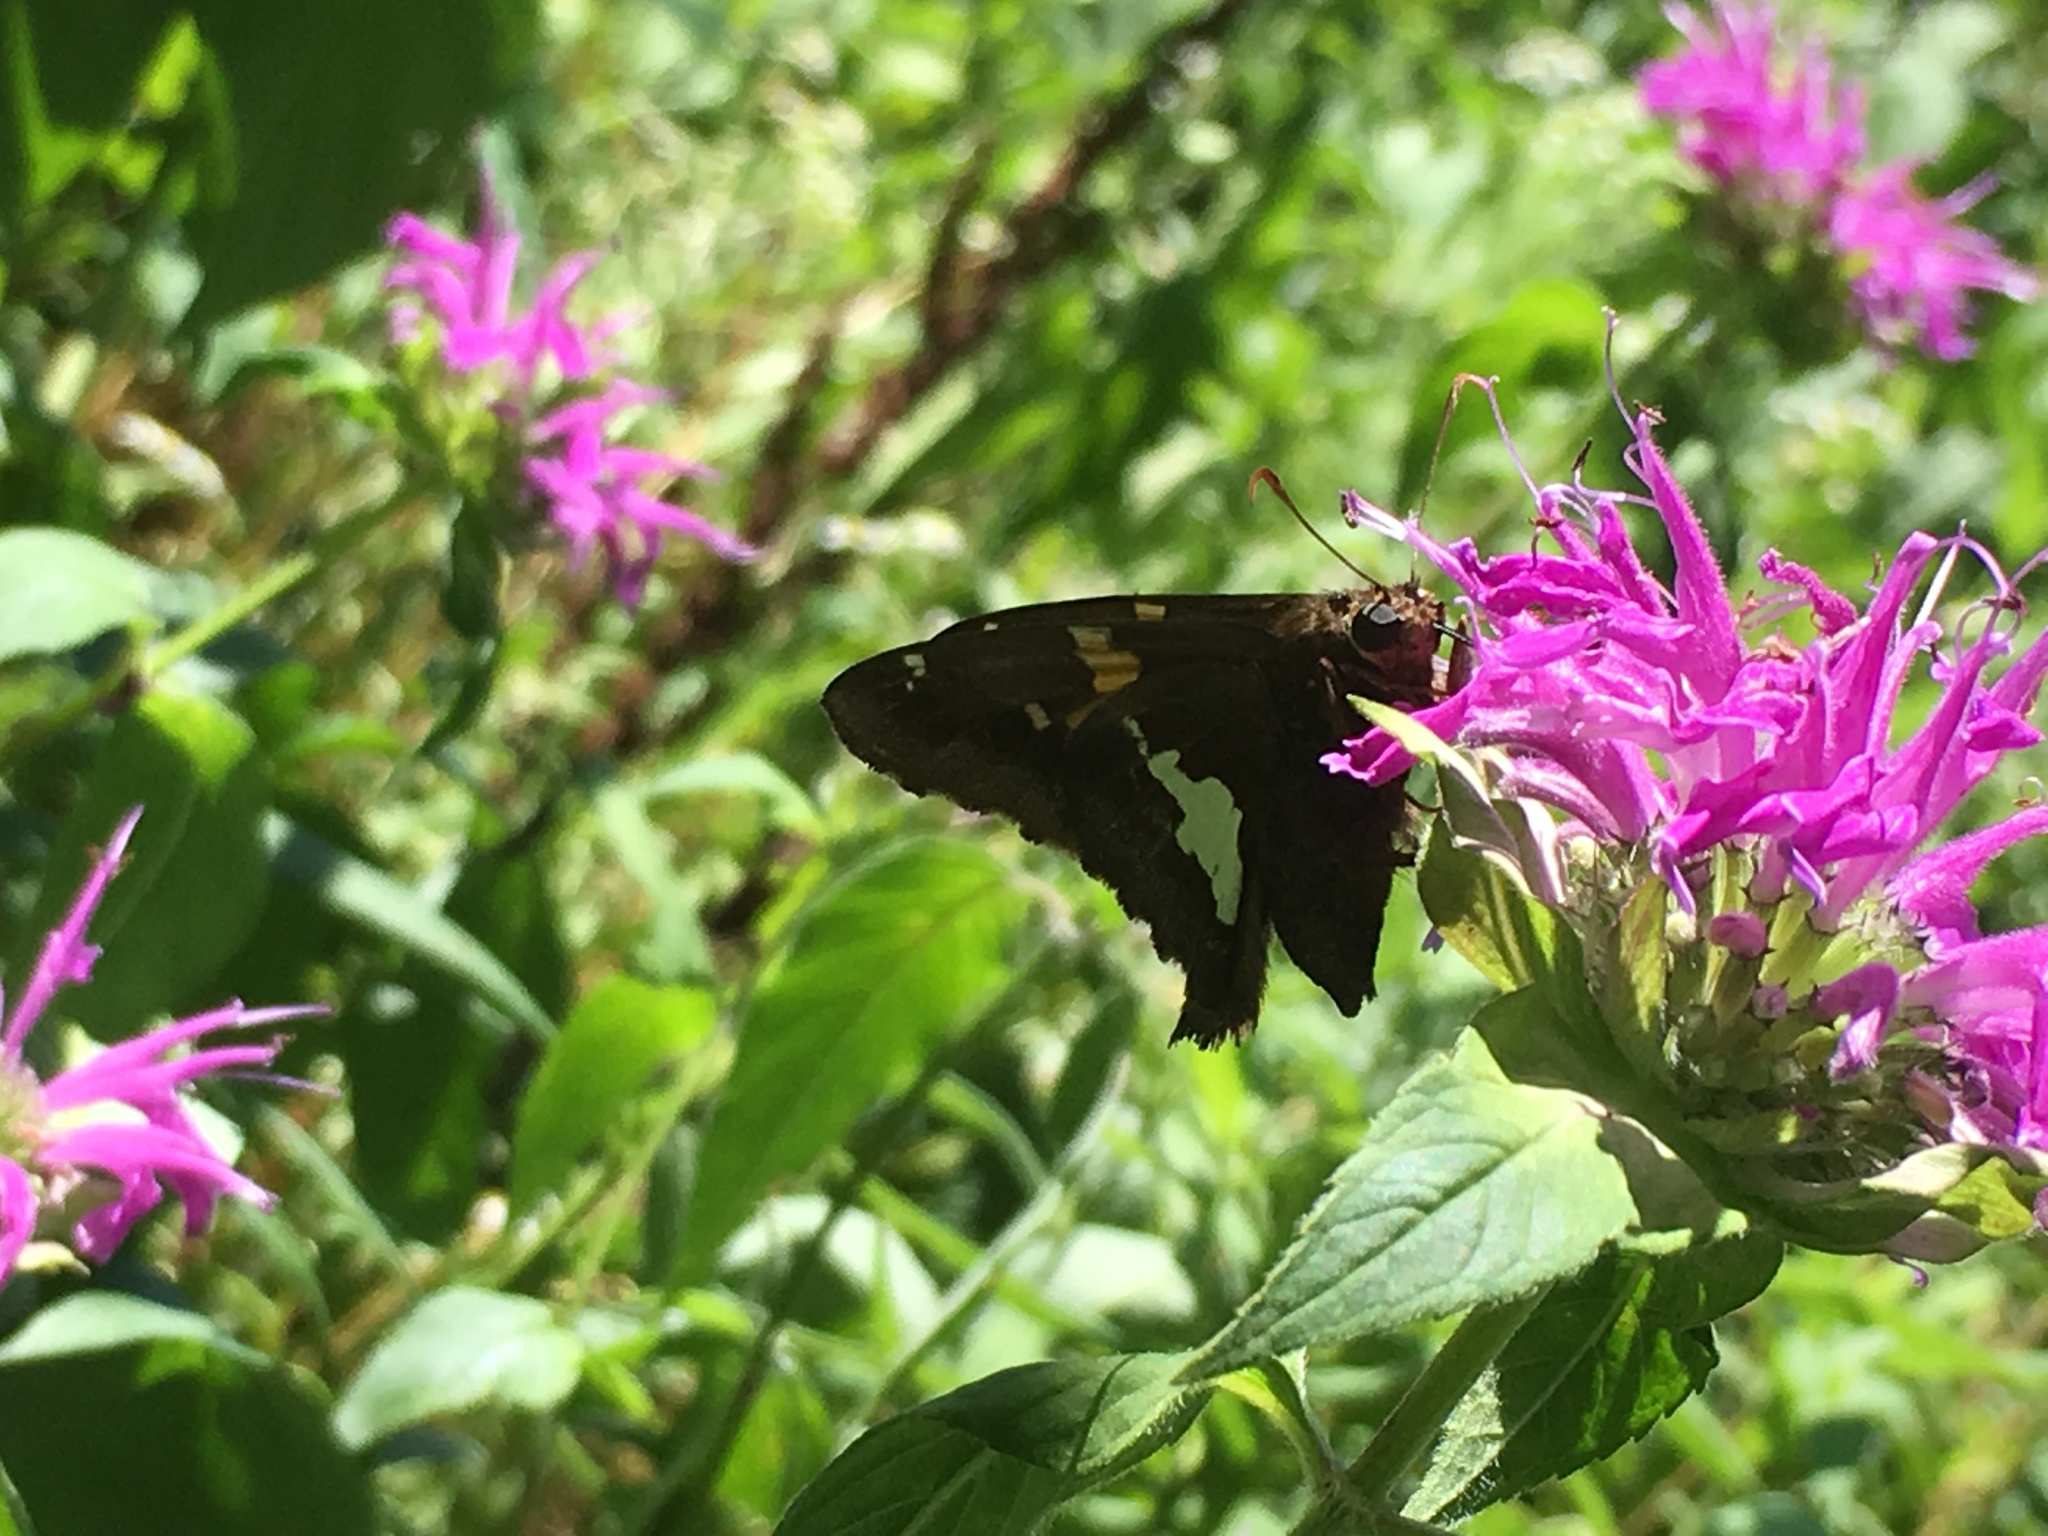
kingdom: Animalia
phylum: Arthropoda
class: Insecta
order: Lepidoptera
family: Hesperiidae
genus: Epargyreus
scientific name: Epargyreus clarus
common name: Silver-spotted skipper
